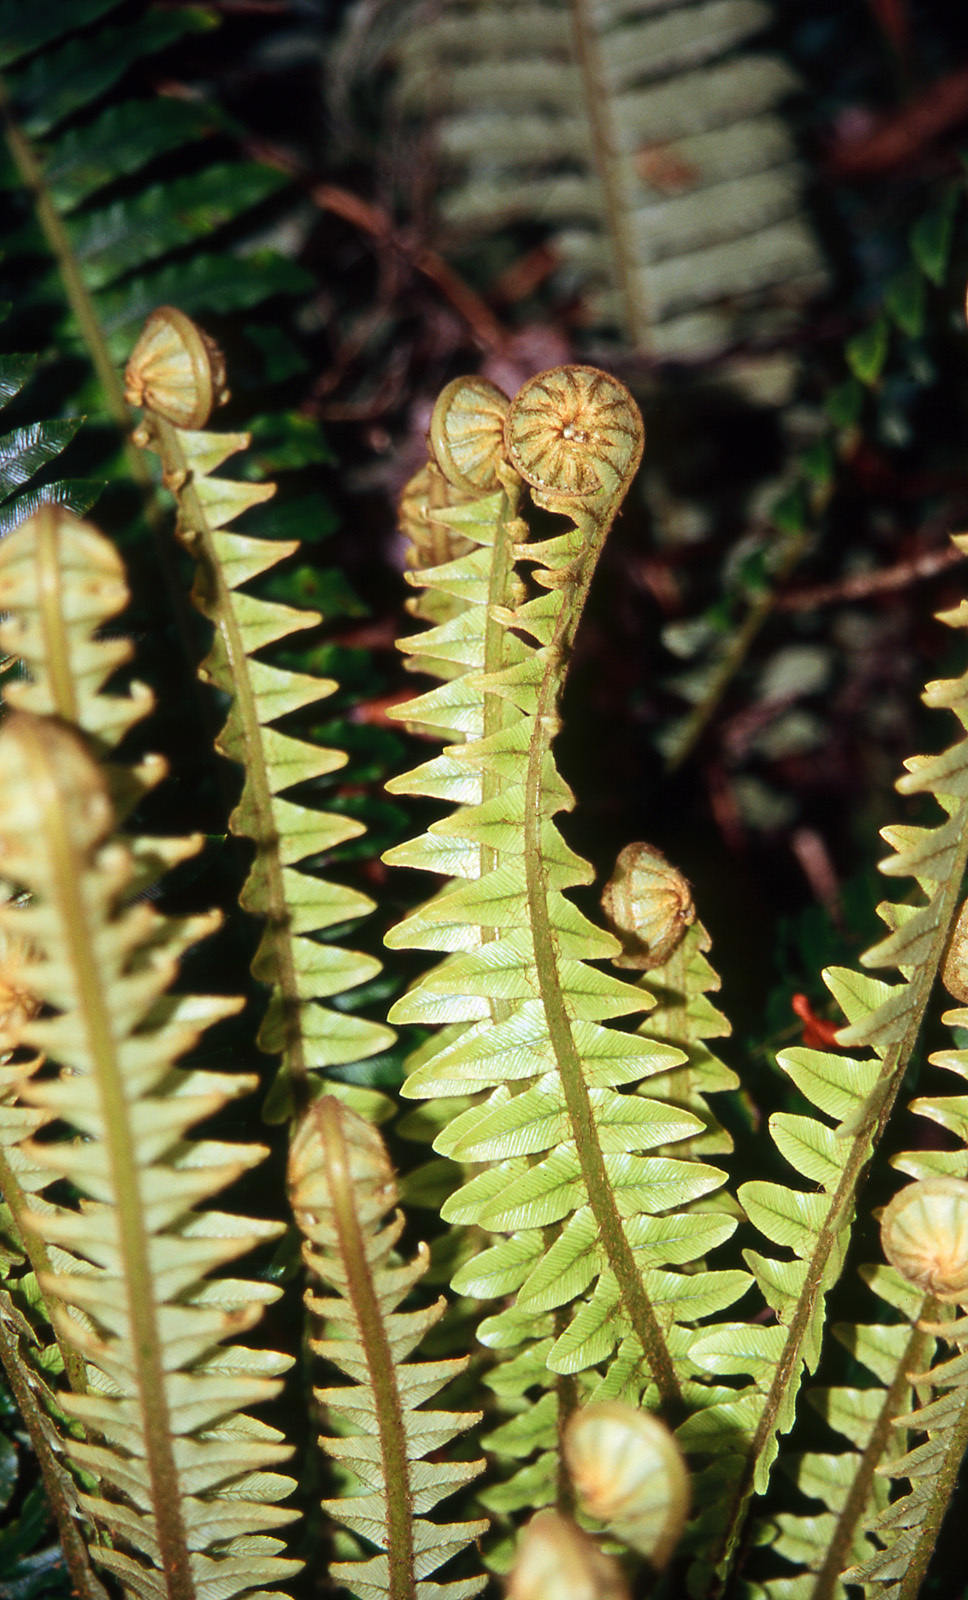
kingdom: Plantae
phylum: Tracheophyta
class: Polypodiopsida
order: Polypodiales
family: Blechnaceae
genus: Lomaria
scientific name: Lomaria discolor
